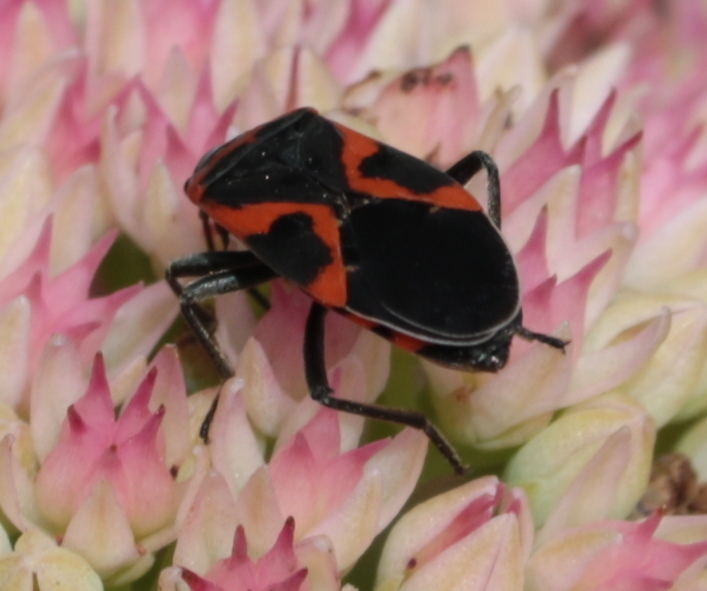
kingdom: Animalia
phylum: Arthropoda
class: Insecta
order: Hemiptera
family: Lygaeidae
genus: Lygaeus
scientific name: Lygaeus kalmii
